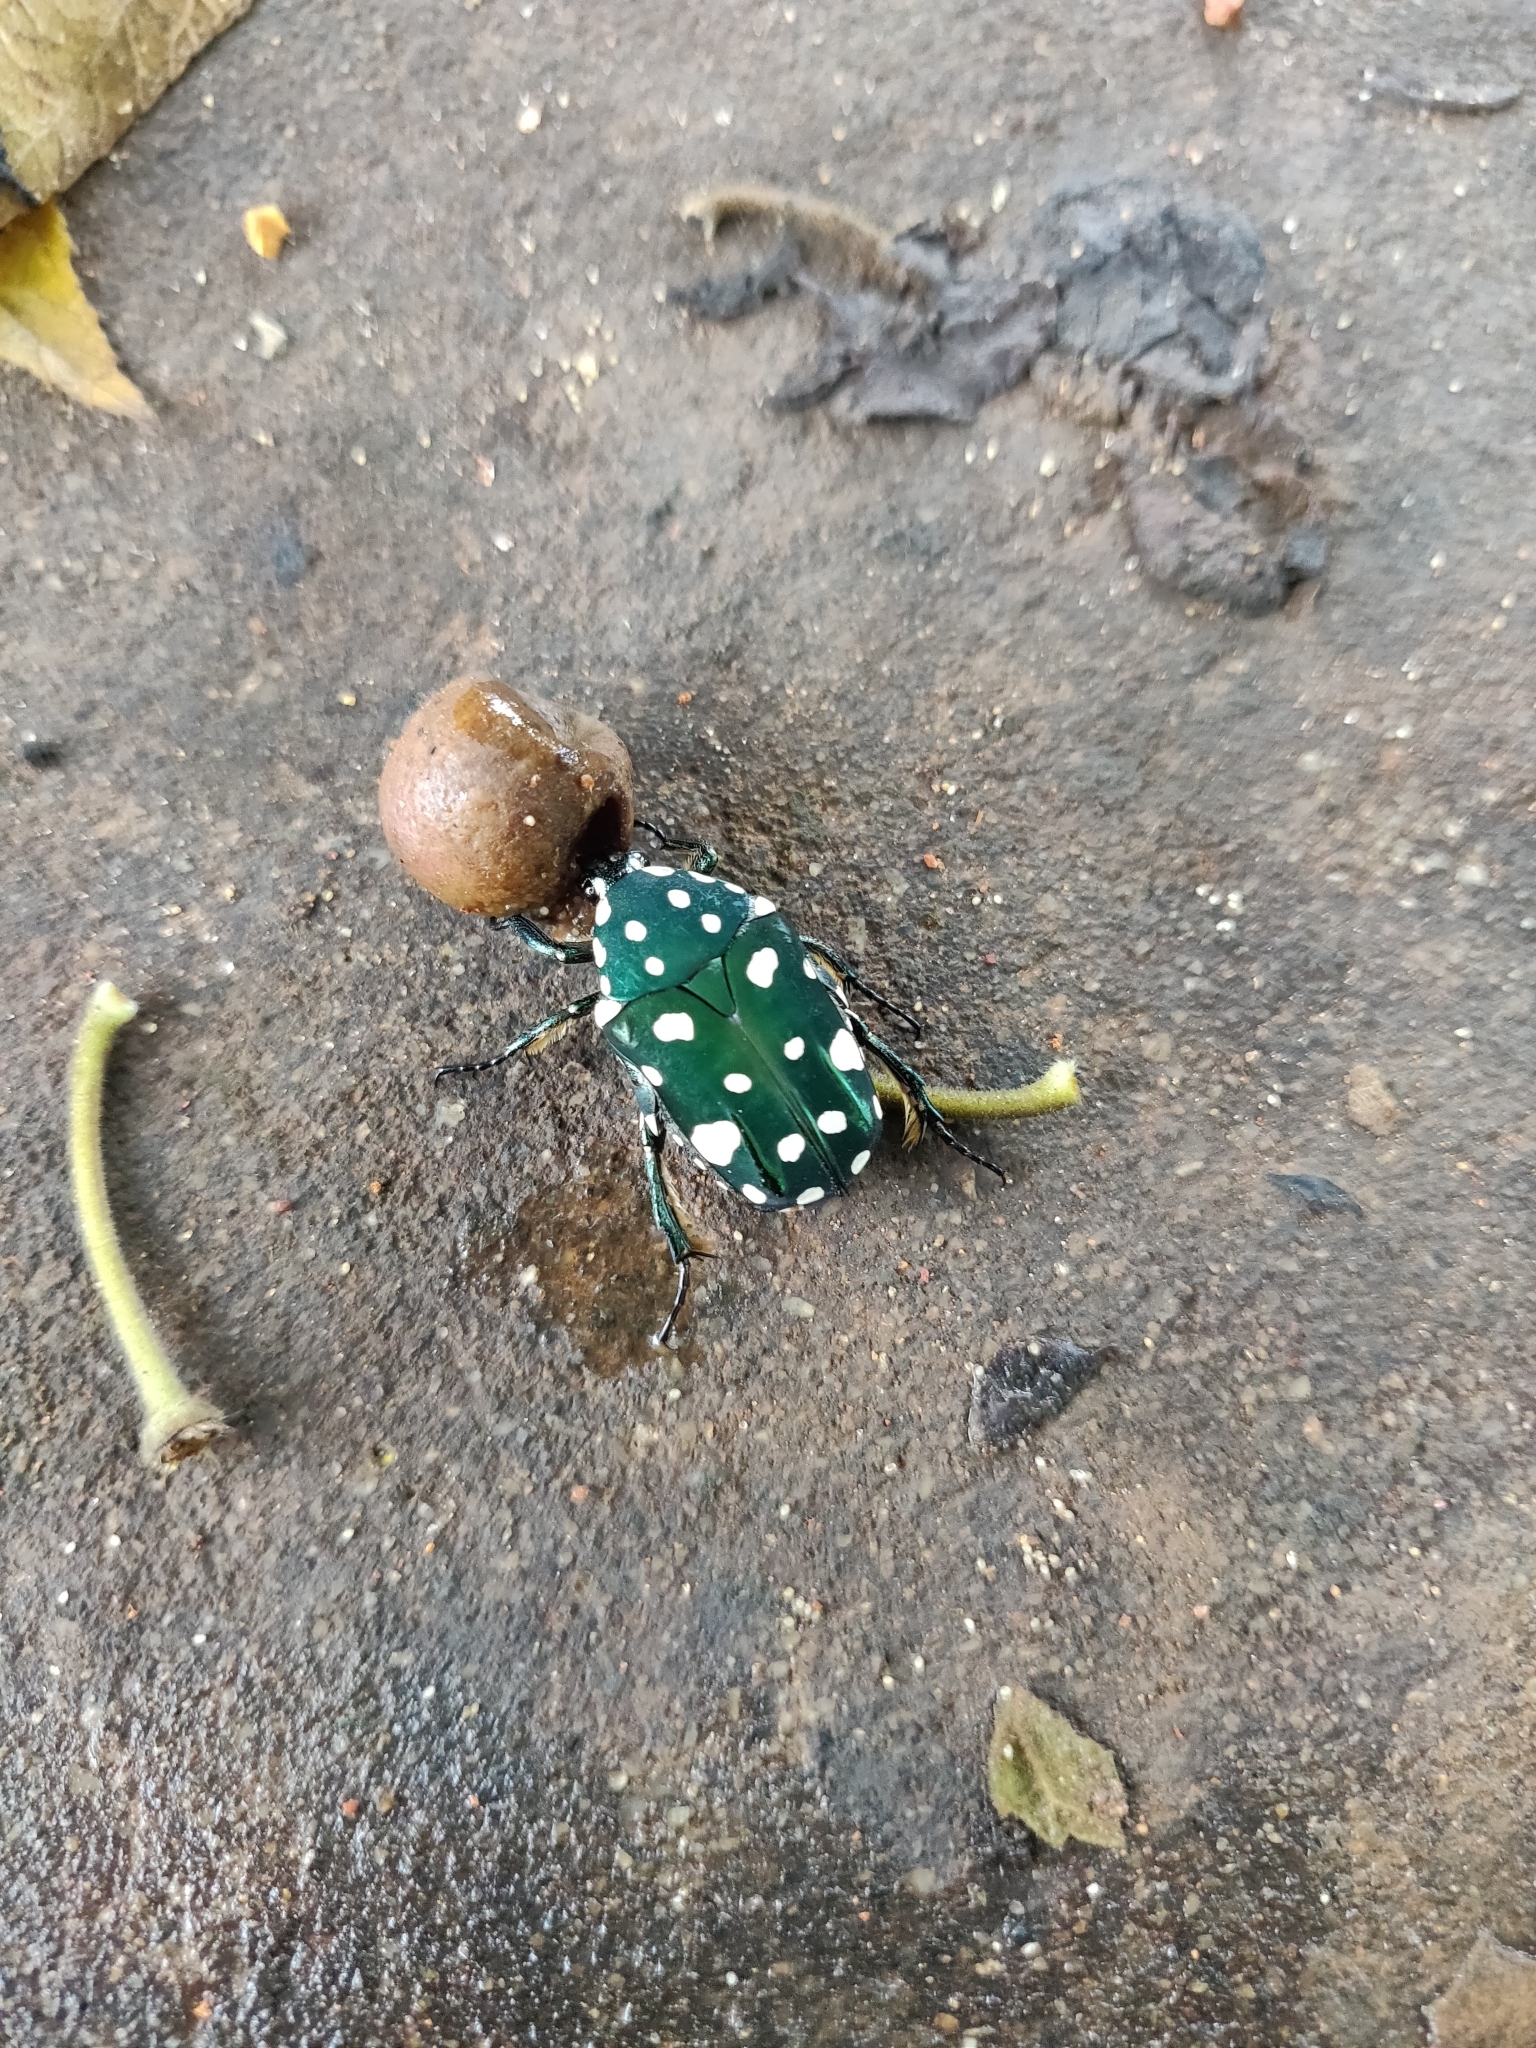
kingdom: Animalia
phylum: Arthropoda
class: Insecta
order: Coleoptera
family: Scarabaeidae
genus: Protaetia
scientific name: Protaetia alboguttata
